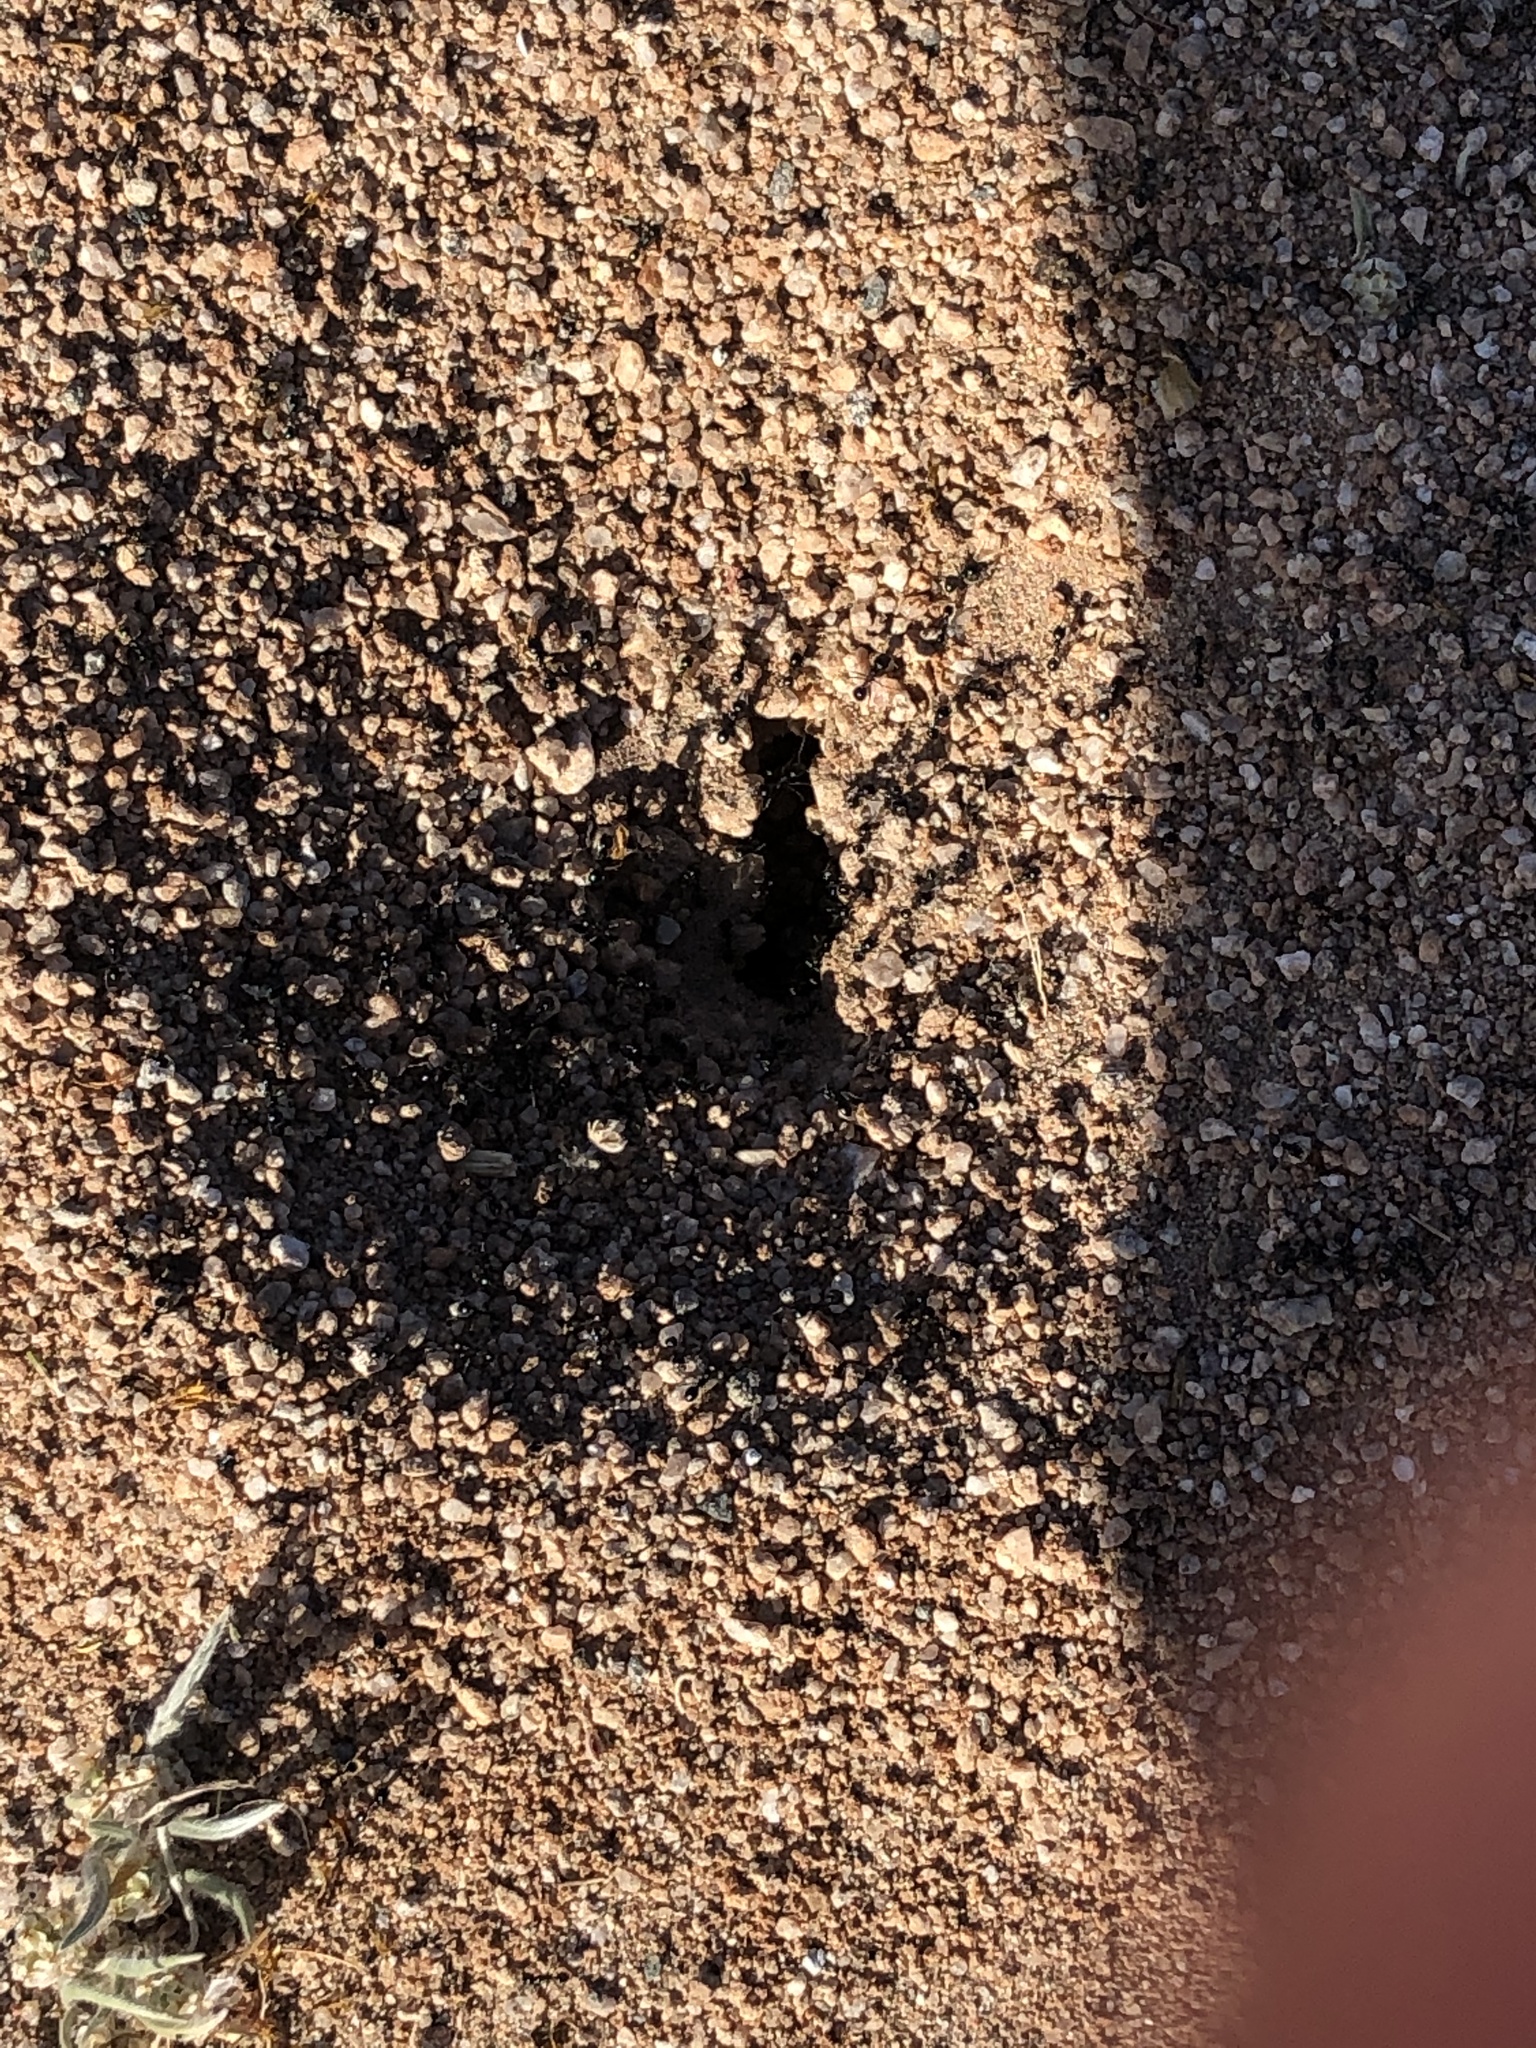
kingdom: Animalia
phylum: Arthropoda
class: Insecta
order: Hymenoptera
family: Formicidae
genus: Messor
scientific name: Messor pergandei
